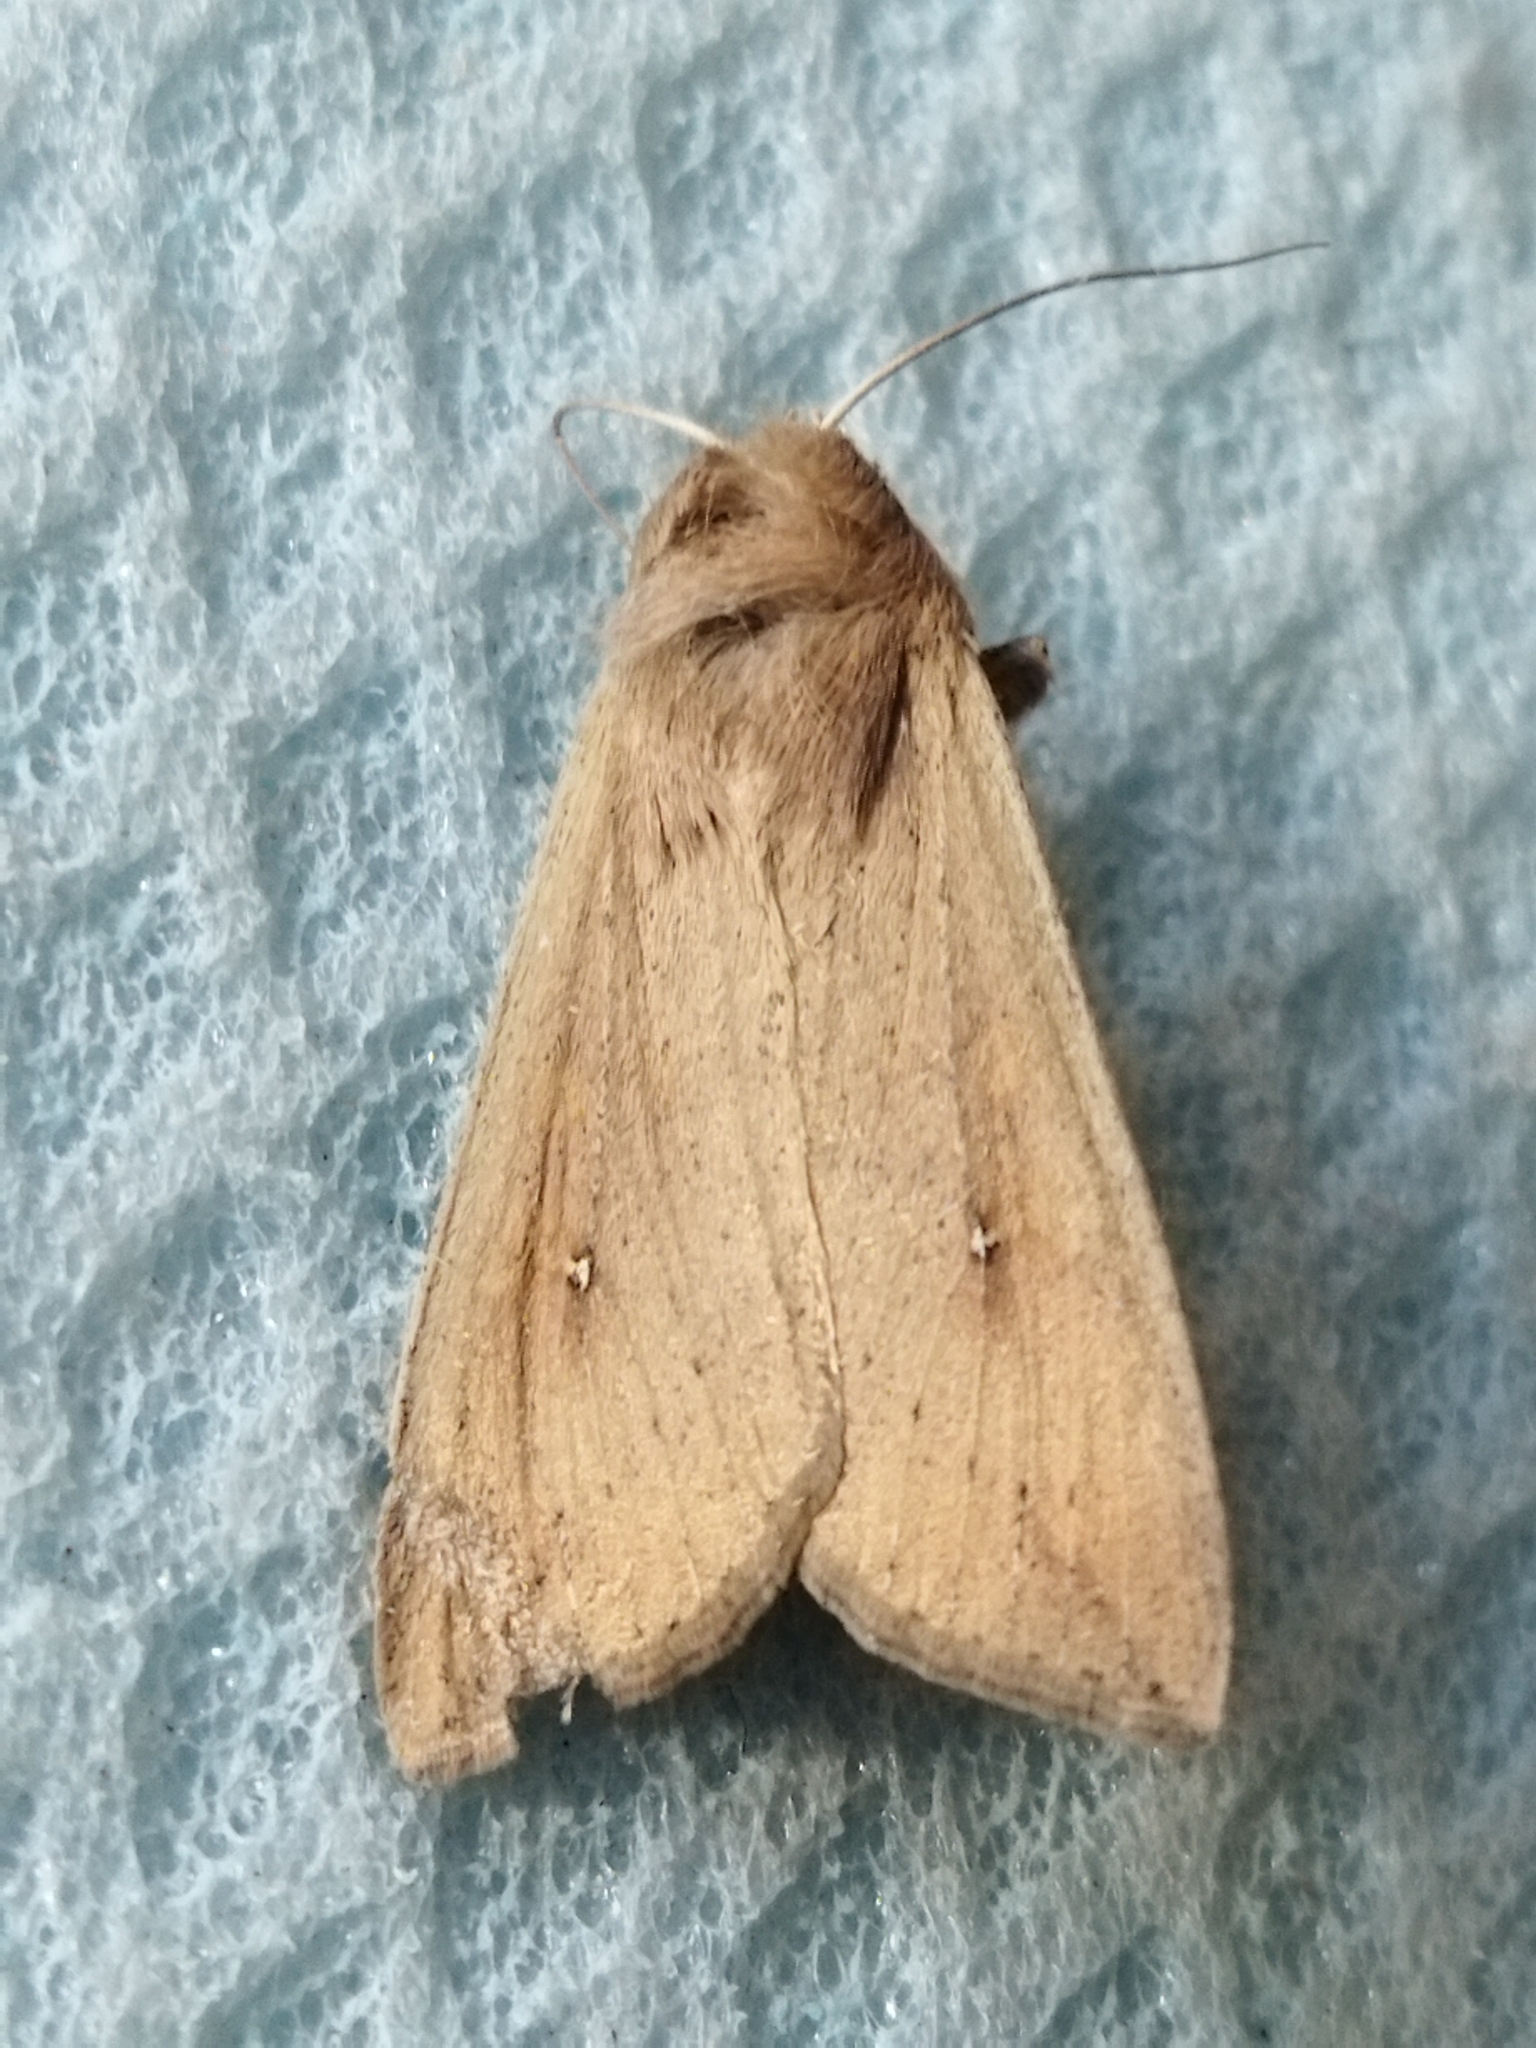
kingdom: Animalia
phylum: Arthropoda
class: Insecta
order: Lepidoptera
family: Noctuidae
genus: Mythimna
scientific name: Mythimna unipuncta
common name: White-speck
